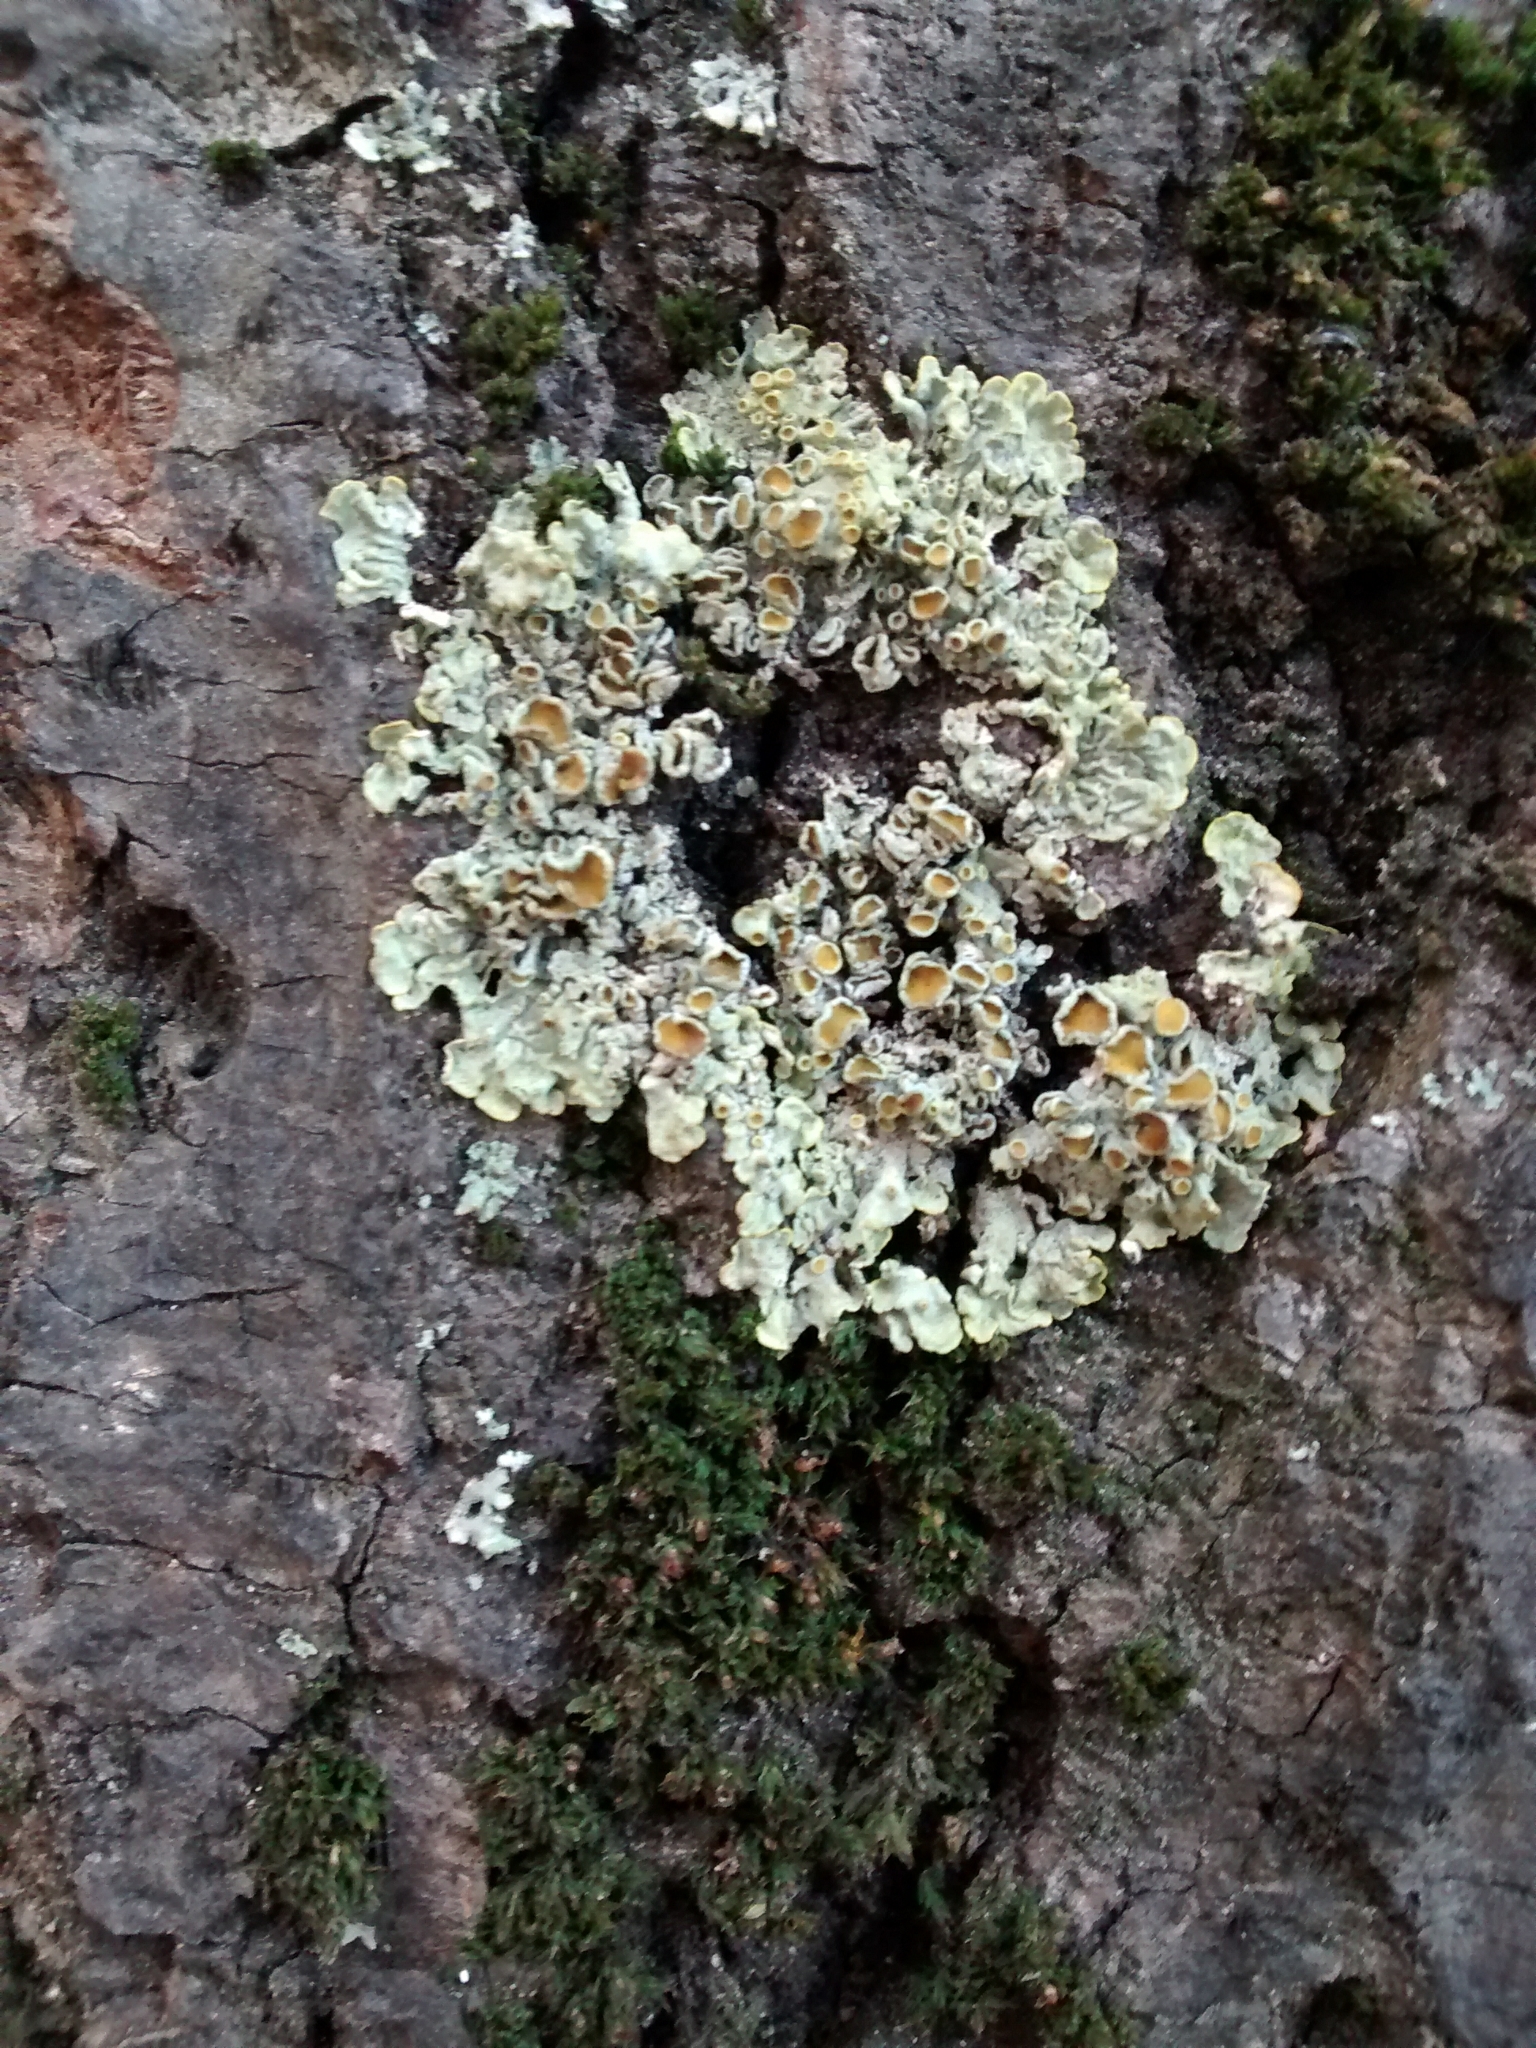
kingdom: Fungi
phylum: Ascomycota
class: Lecanoromycetes
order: Teloschistales
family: Teloschistaceae
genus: Xanthoria
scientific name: Xanthoria parietina
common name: Common orange lichen
